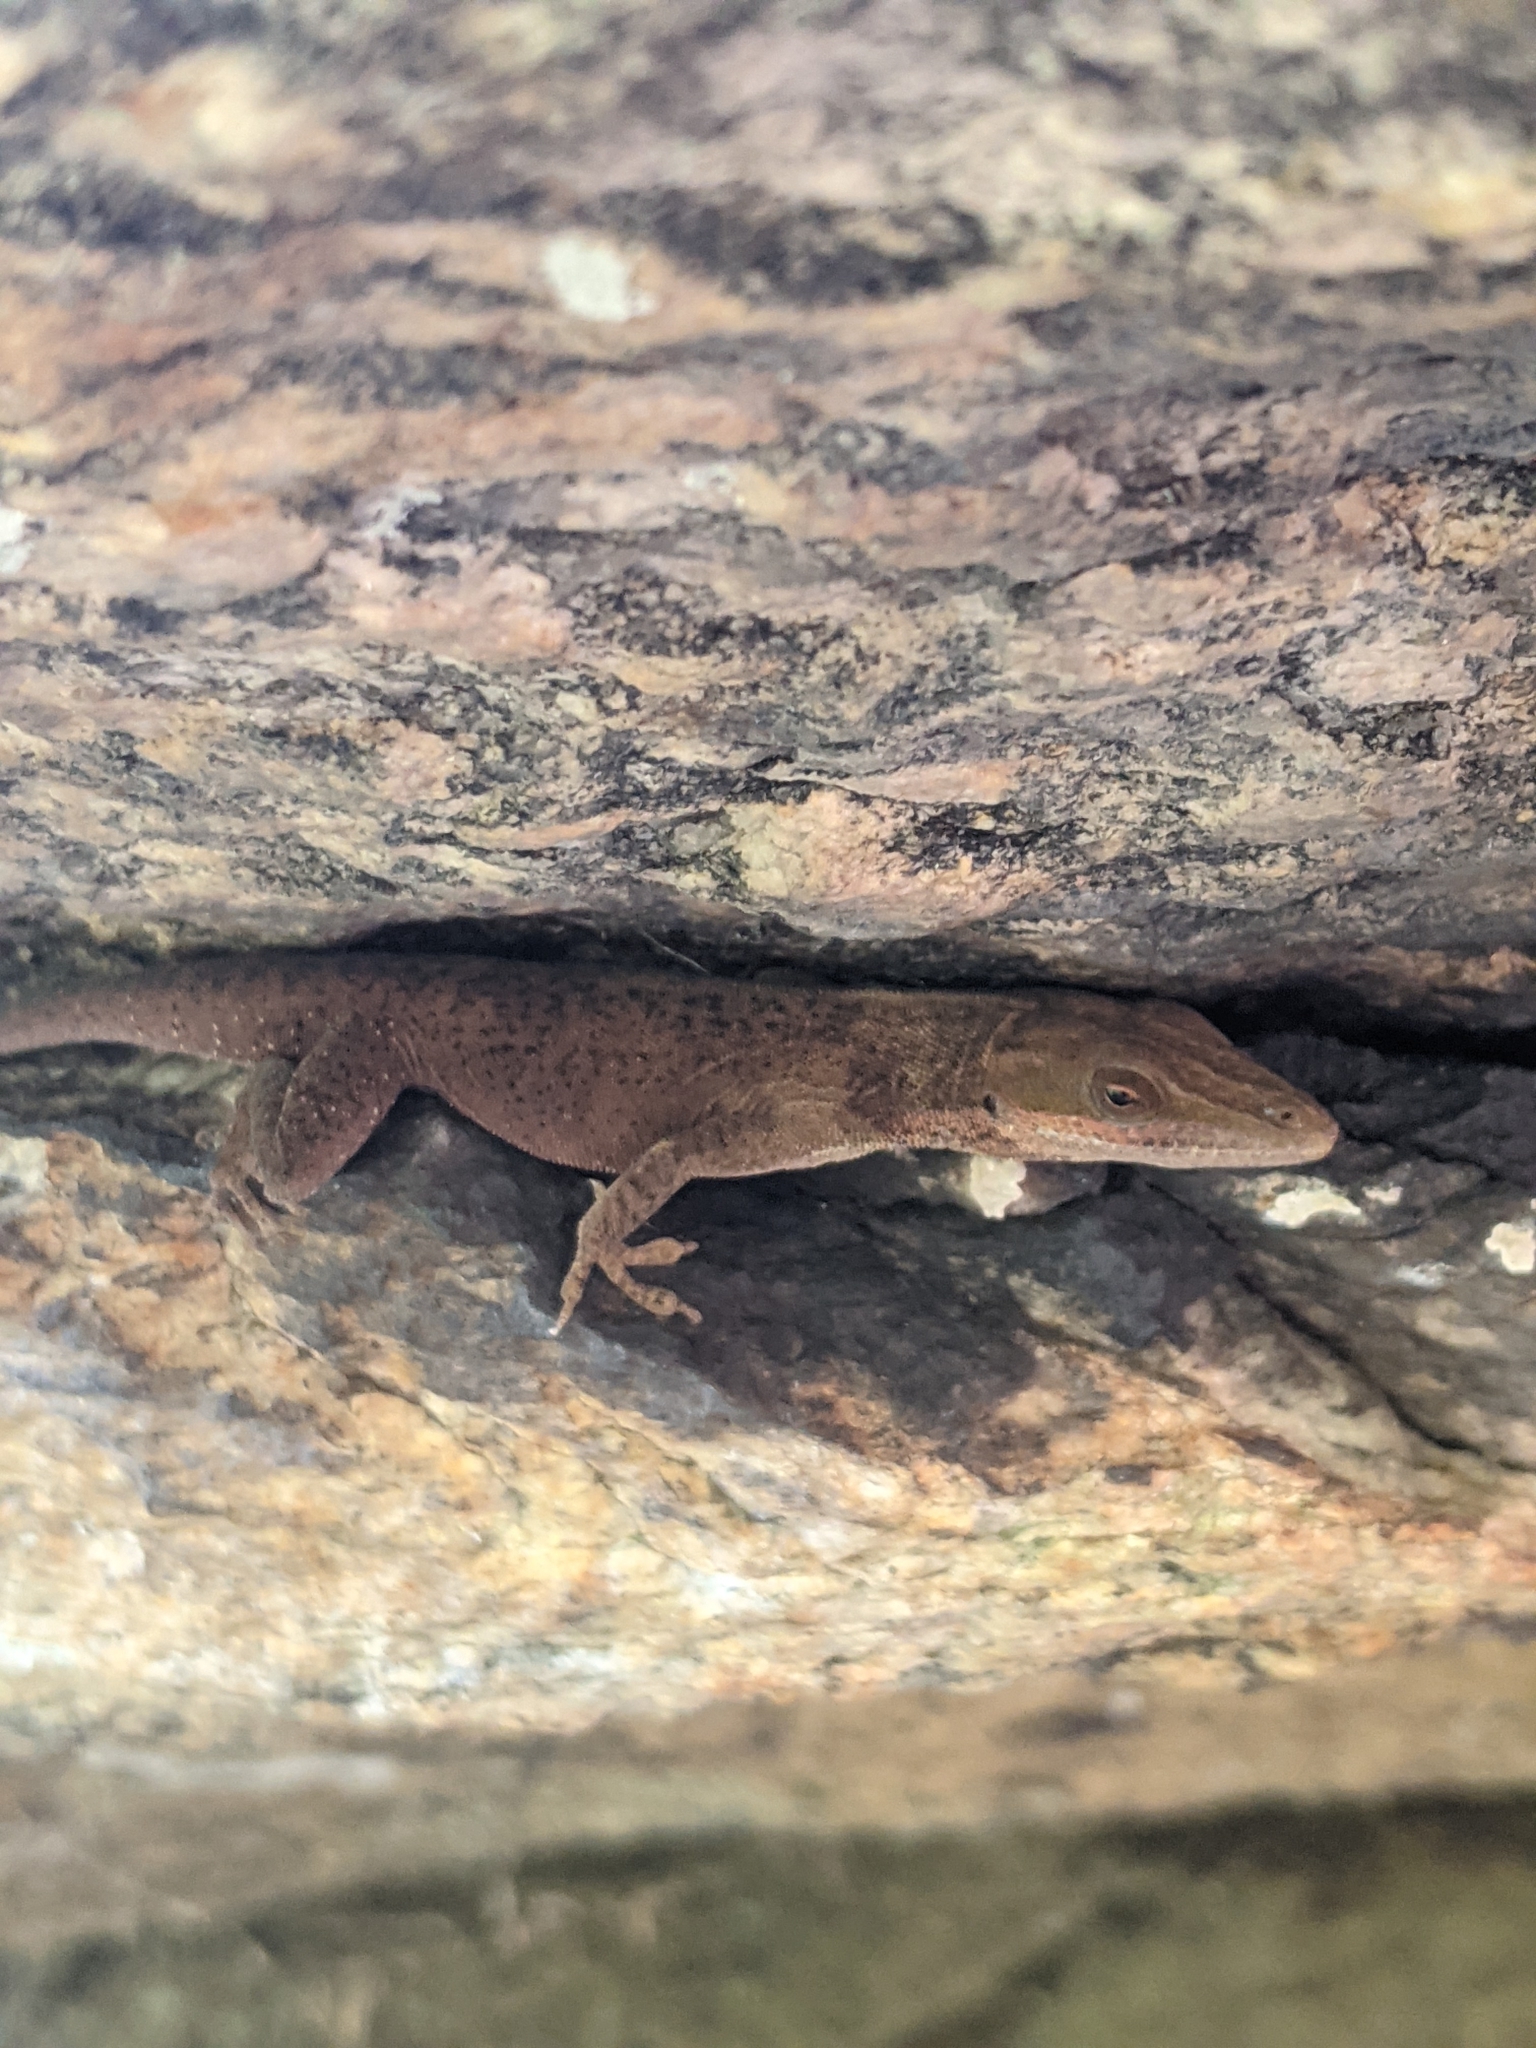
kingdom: Animalia
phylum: Chordata
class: Squamata
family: Dactyloidae
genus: Anolis
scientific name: Anolis carolinensis
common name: Green anole
